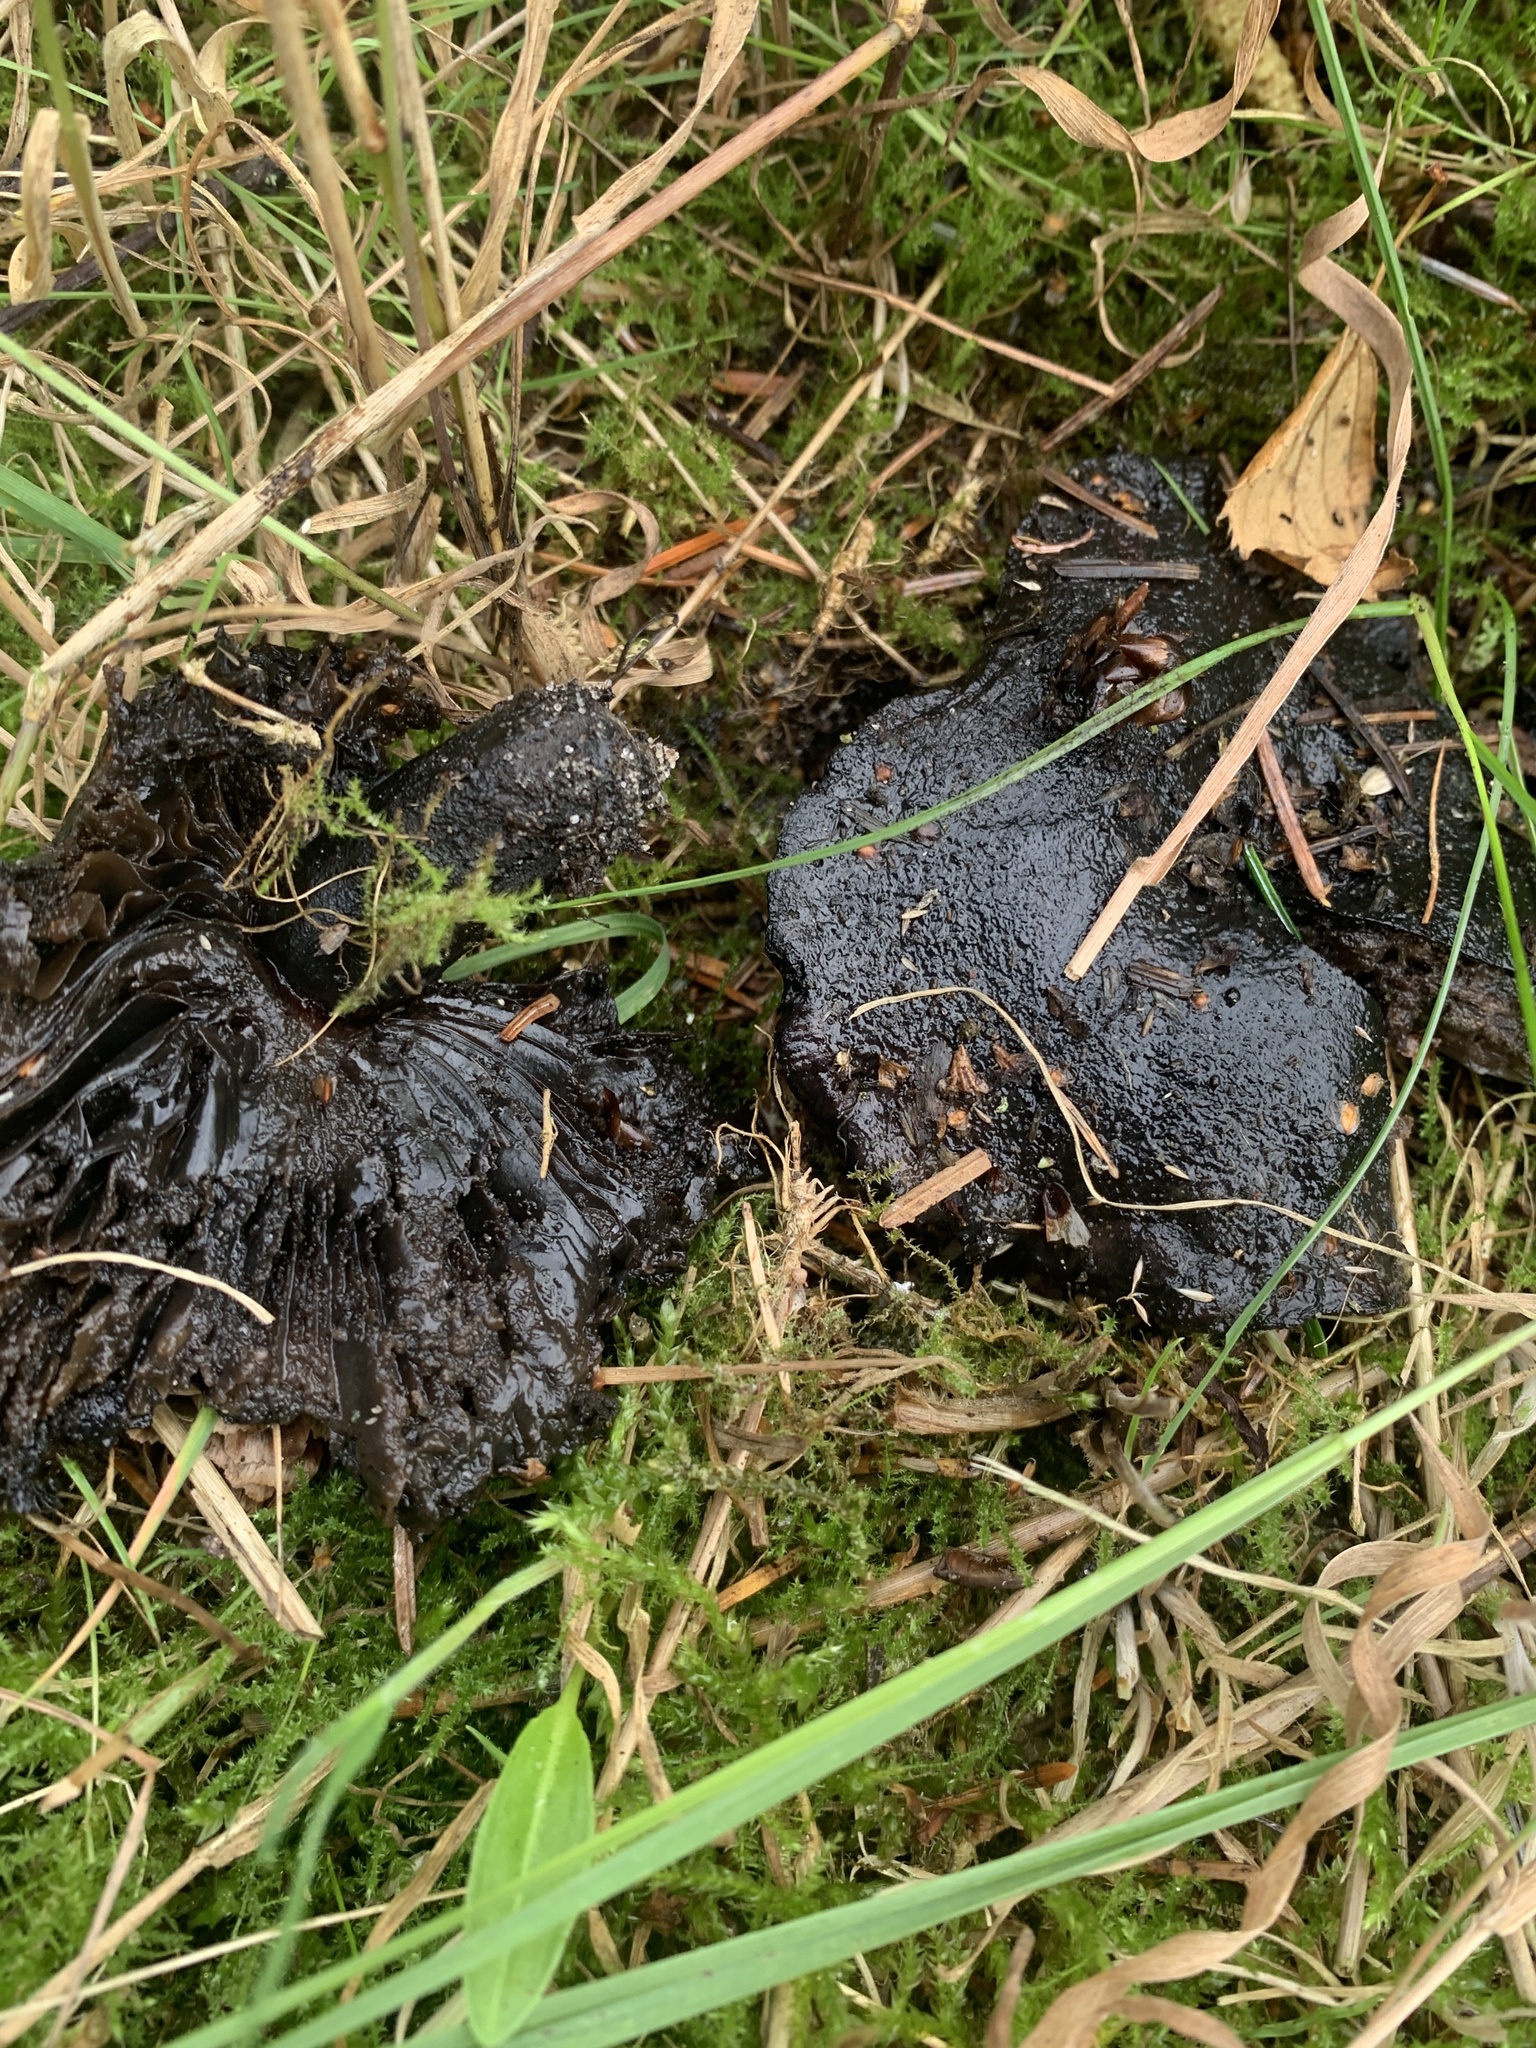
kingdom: Fungi
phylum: Basidiomycota
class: Agaricomycetes
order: Russulales
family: Russulaceae
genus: Russula
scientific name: Russula adusta
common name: Winecork brittlegill
